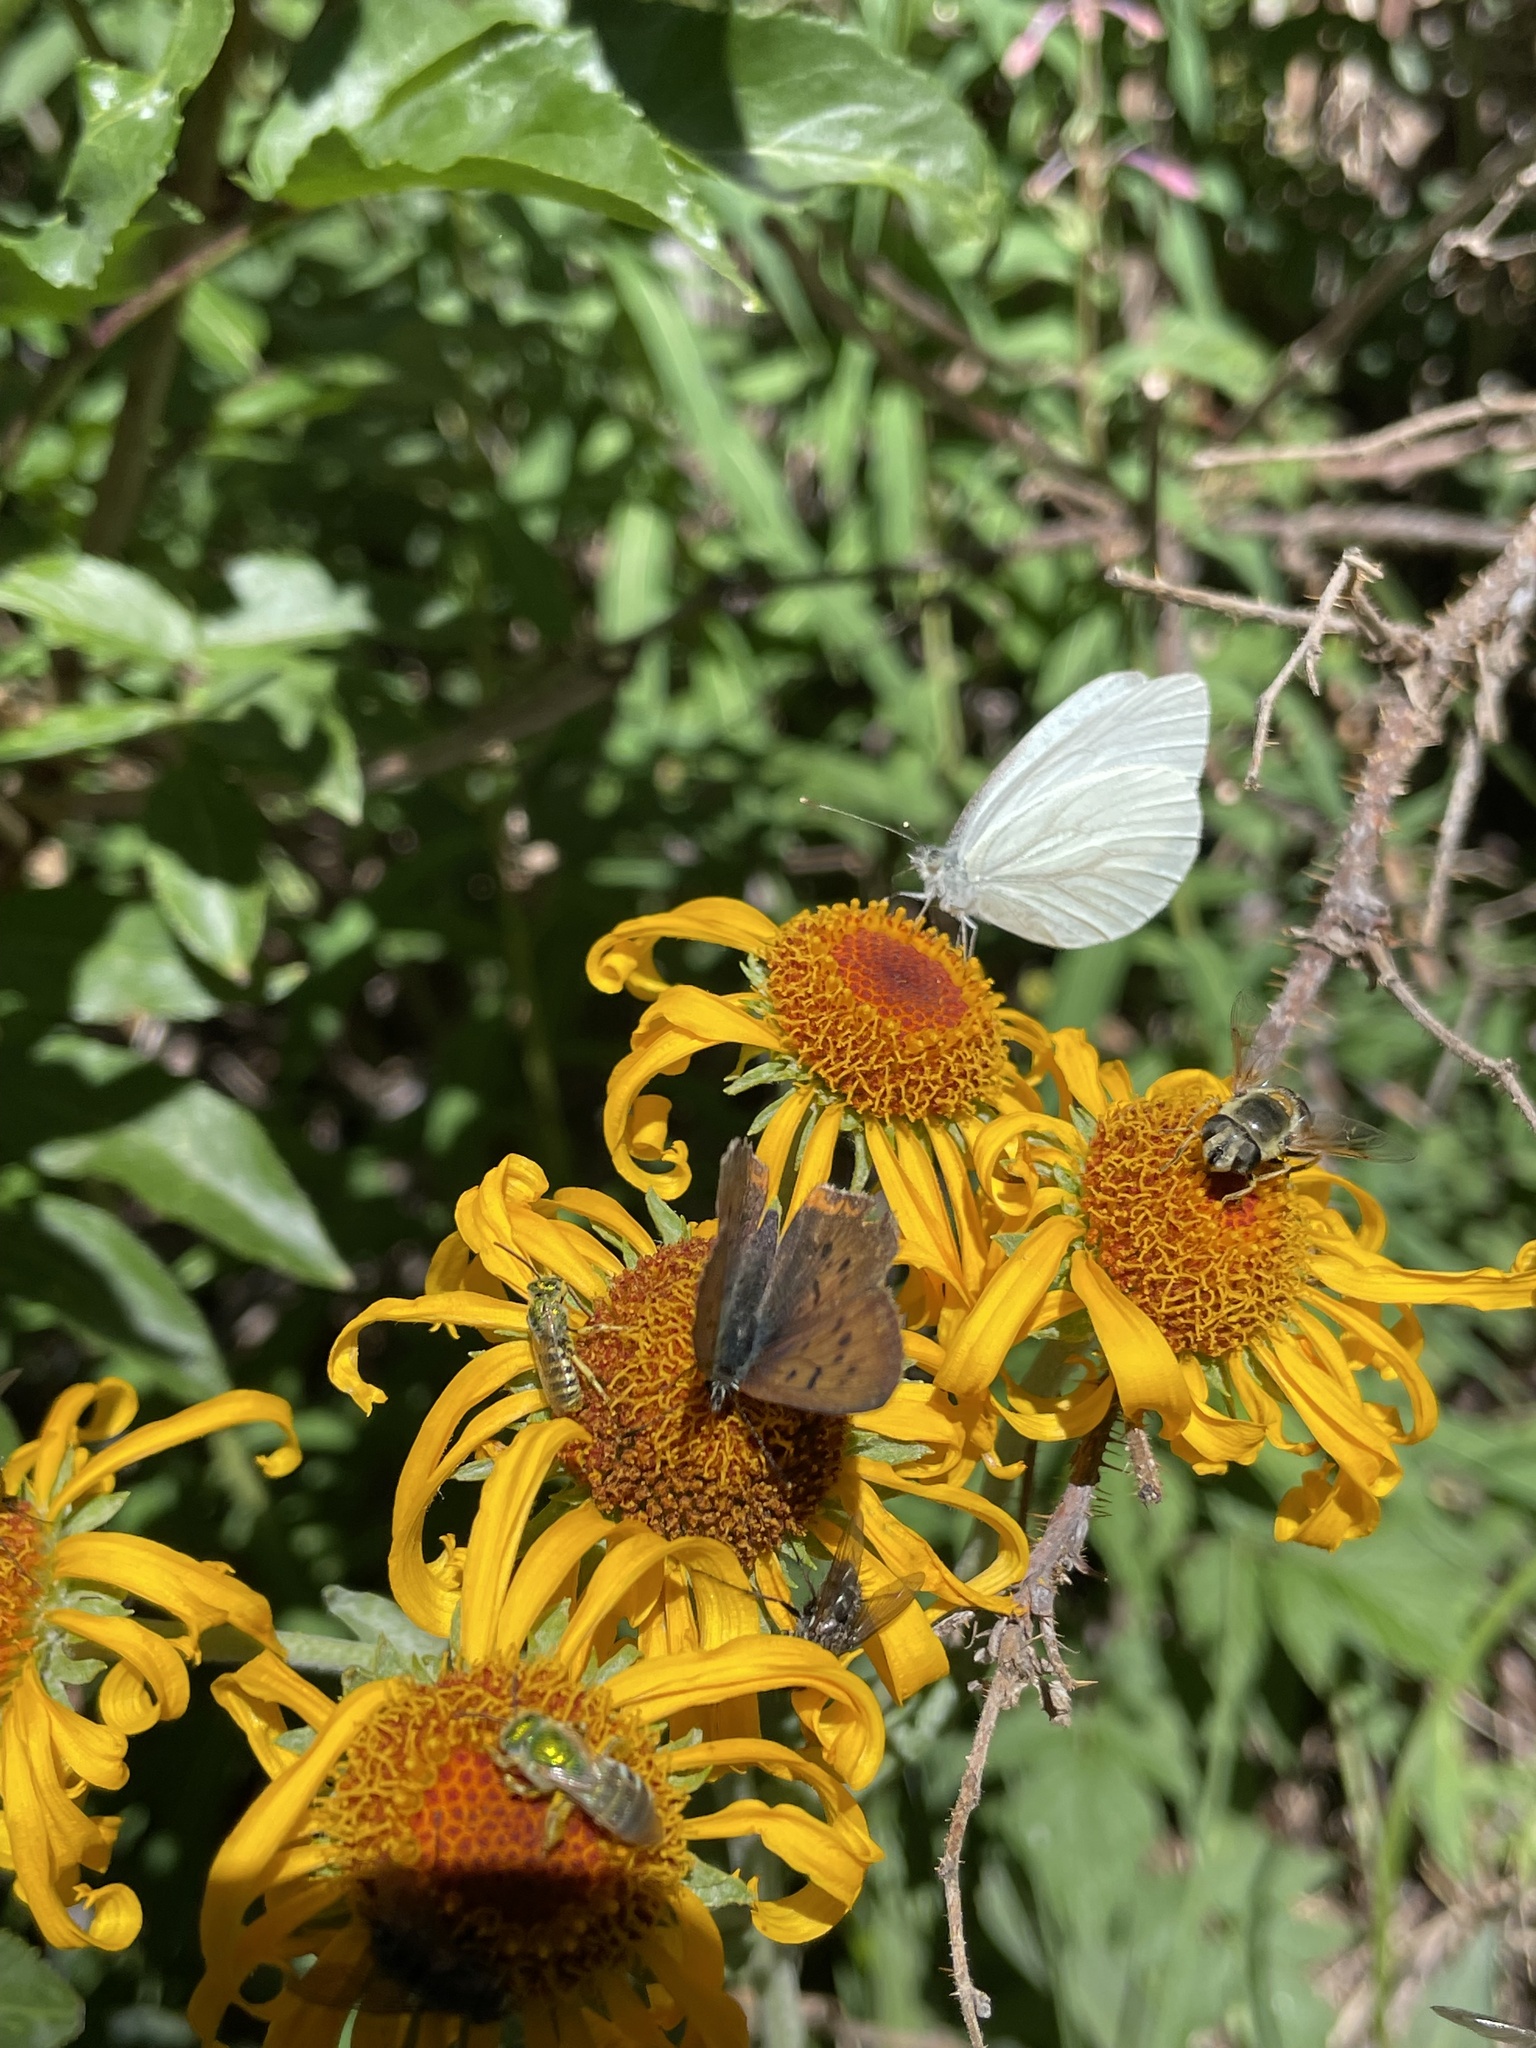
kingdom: Animalia
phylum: Arthropoda
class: Insecta
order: Lepidoptera
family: Pieridae
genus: Pieris
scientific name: Pieris marginalis
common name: Margined white
